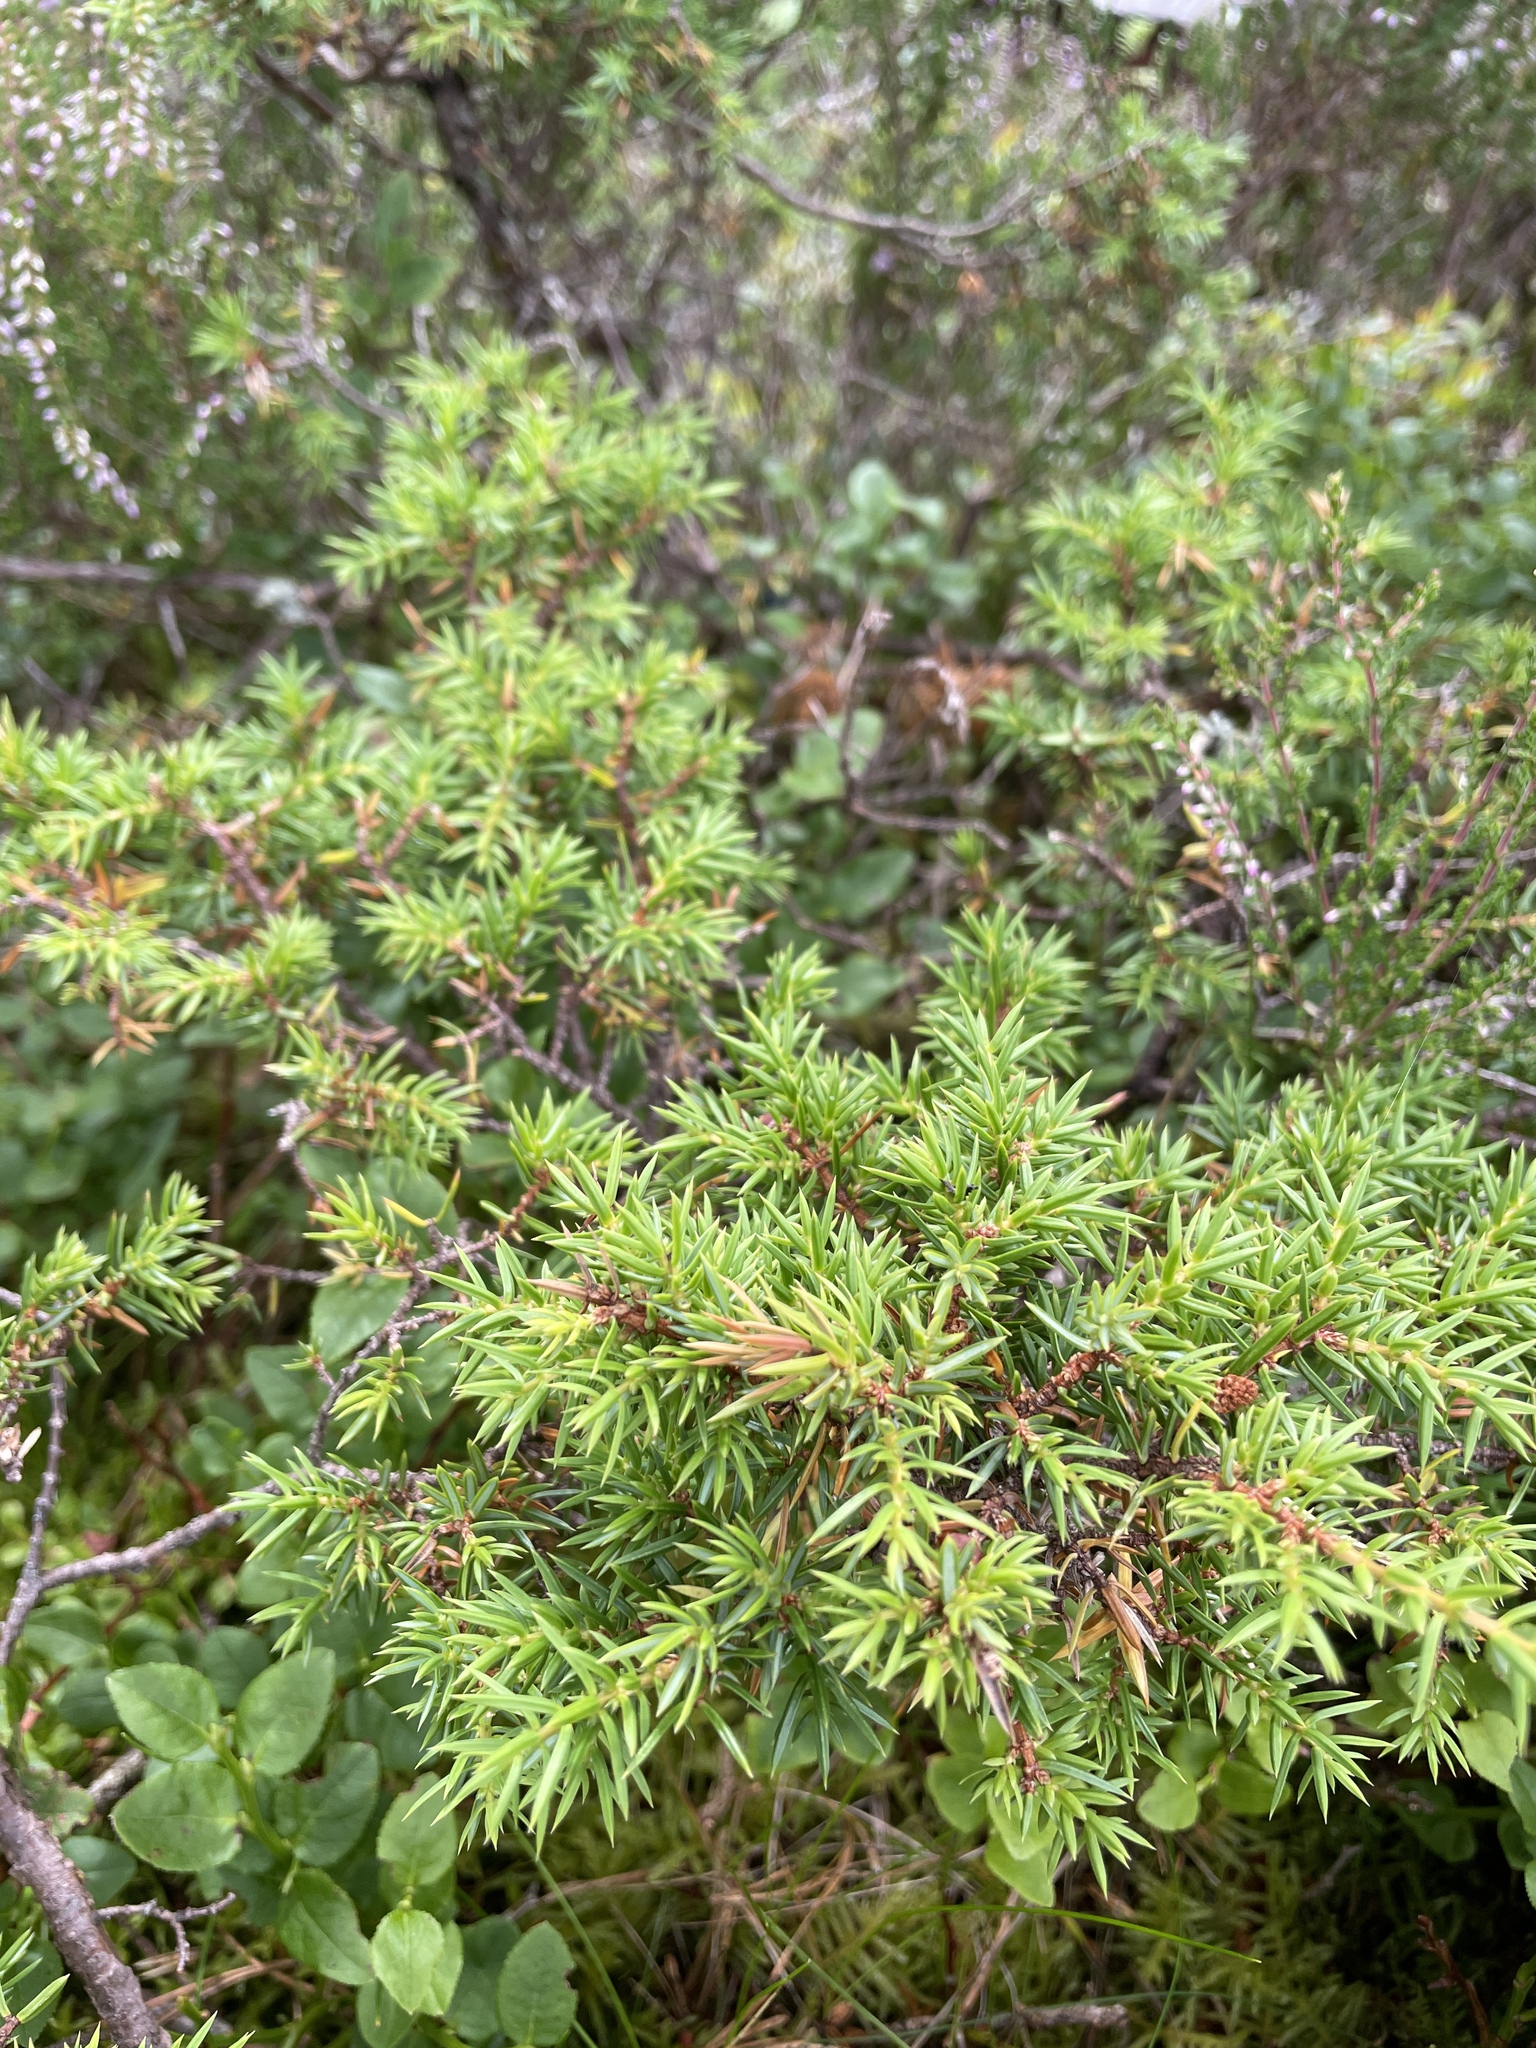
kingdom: Plantae
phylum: Tracheophyta
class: Pinopsida
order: Pinales
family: Cupressaceae
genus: Juniperus
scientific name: Juniperus communis
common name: Common juniper
